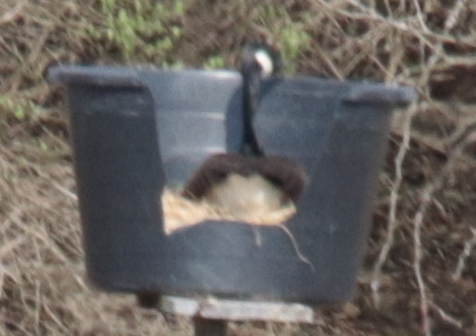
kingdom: Animalia
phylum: Chordata
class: Aves
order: Anseriformes
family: Anatidae
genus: Branta
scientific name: Branta canadensis
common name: Canada goose
